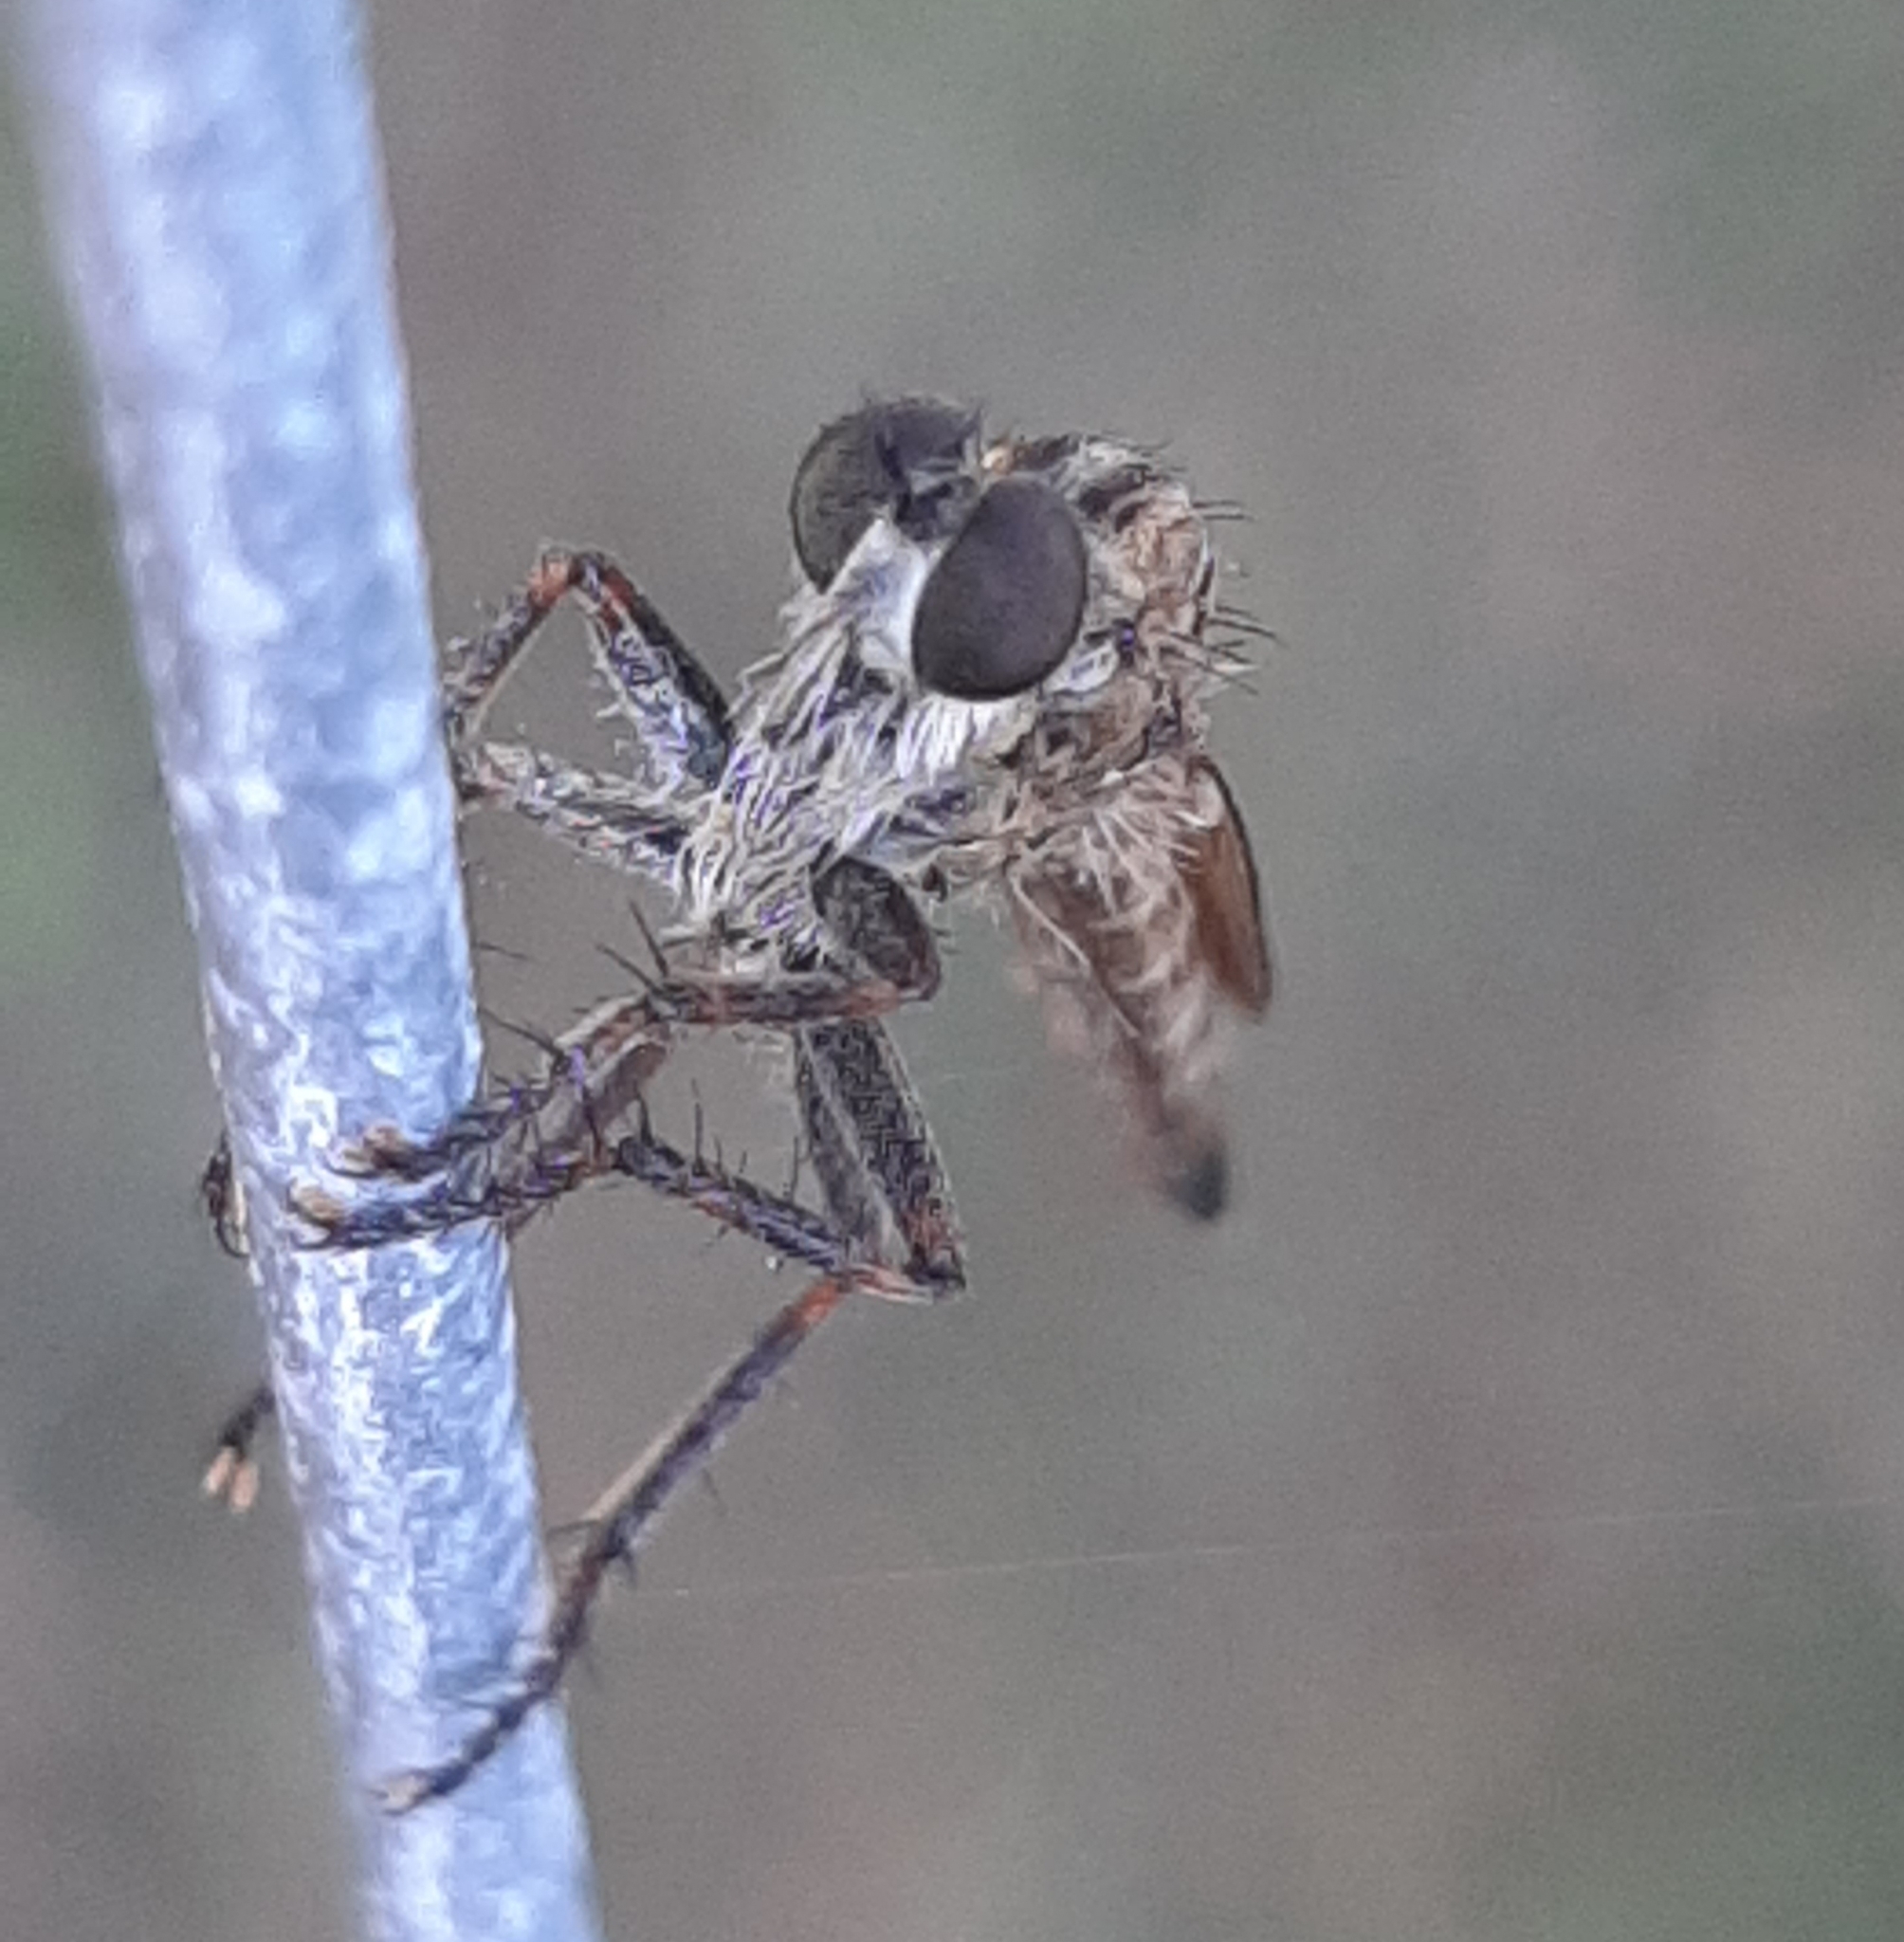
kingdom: Animalia
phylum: Arthropoda
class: Insecta
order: Diptera
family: Asilidae
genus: Machimus
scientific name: Machimus snowii
